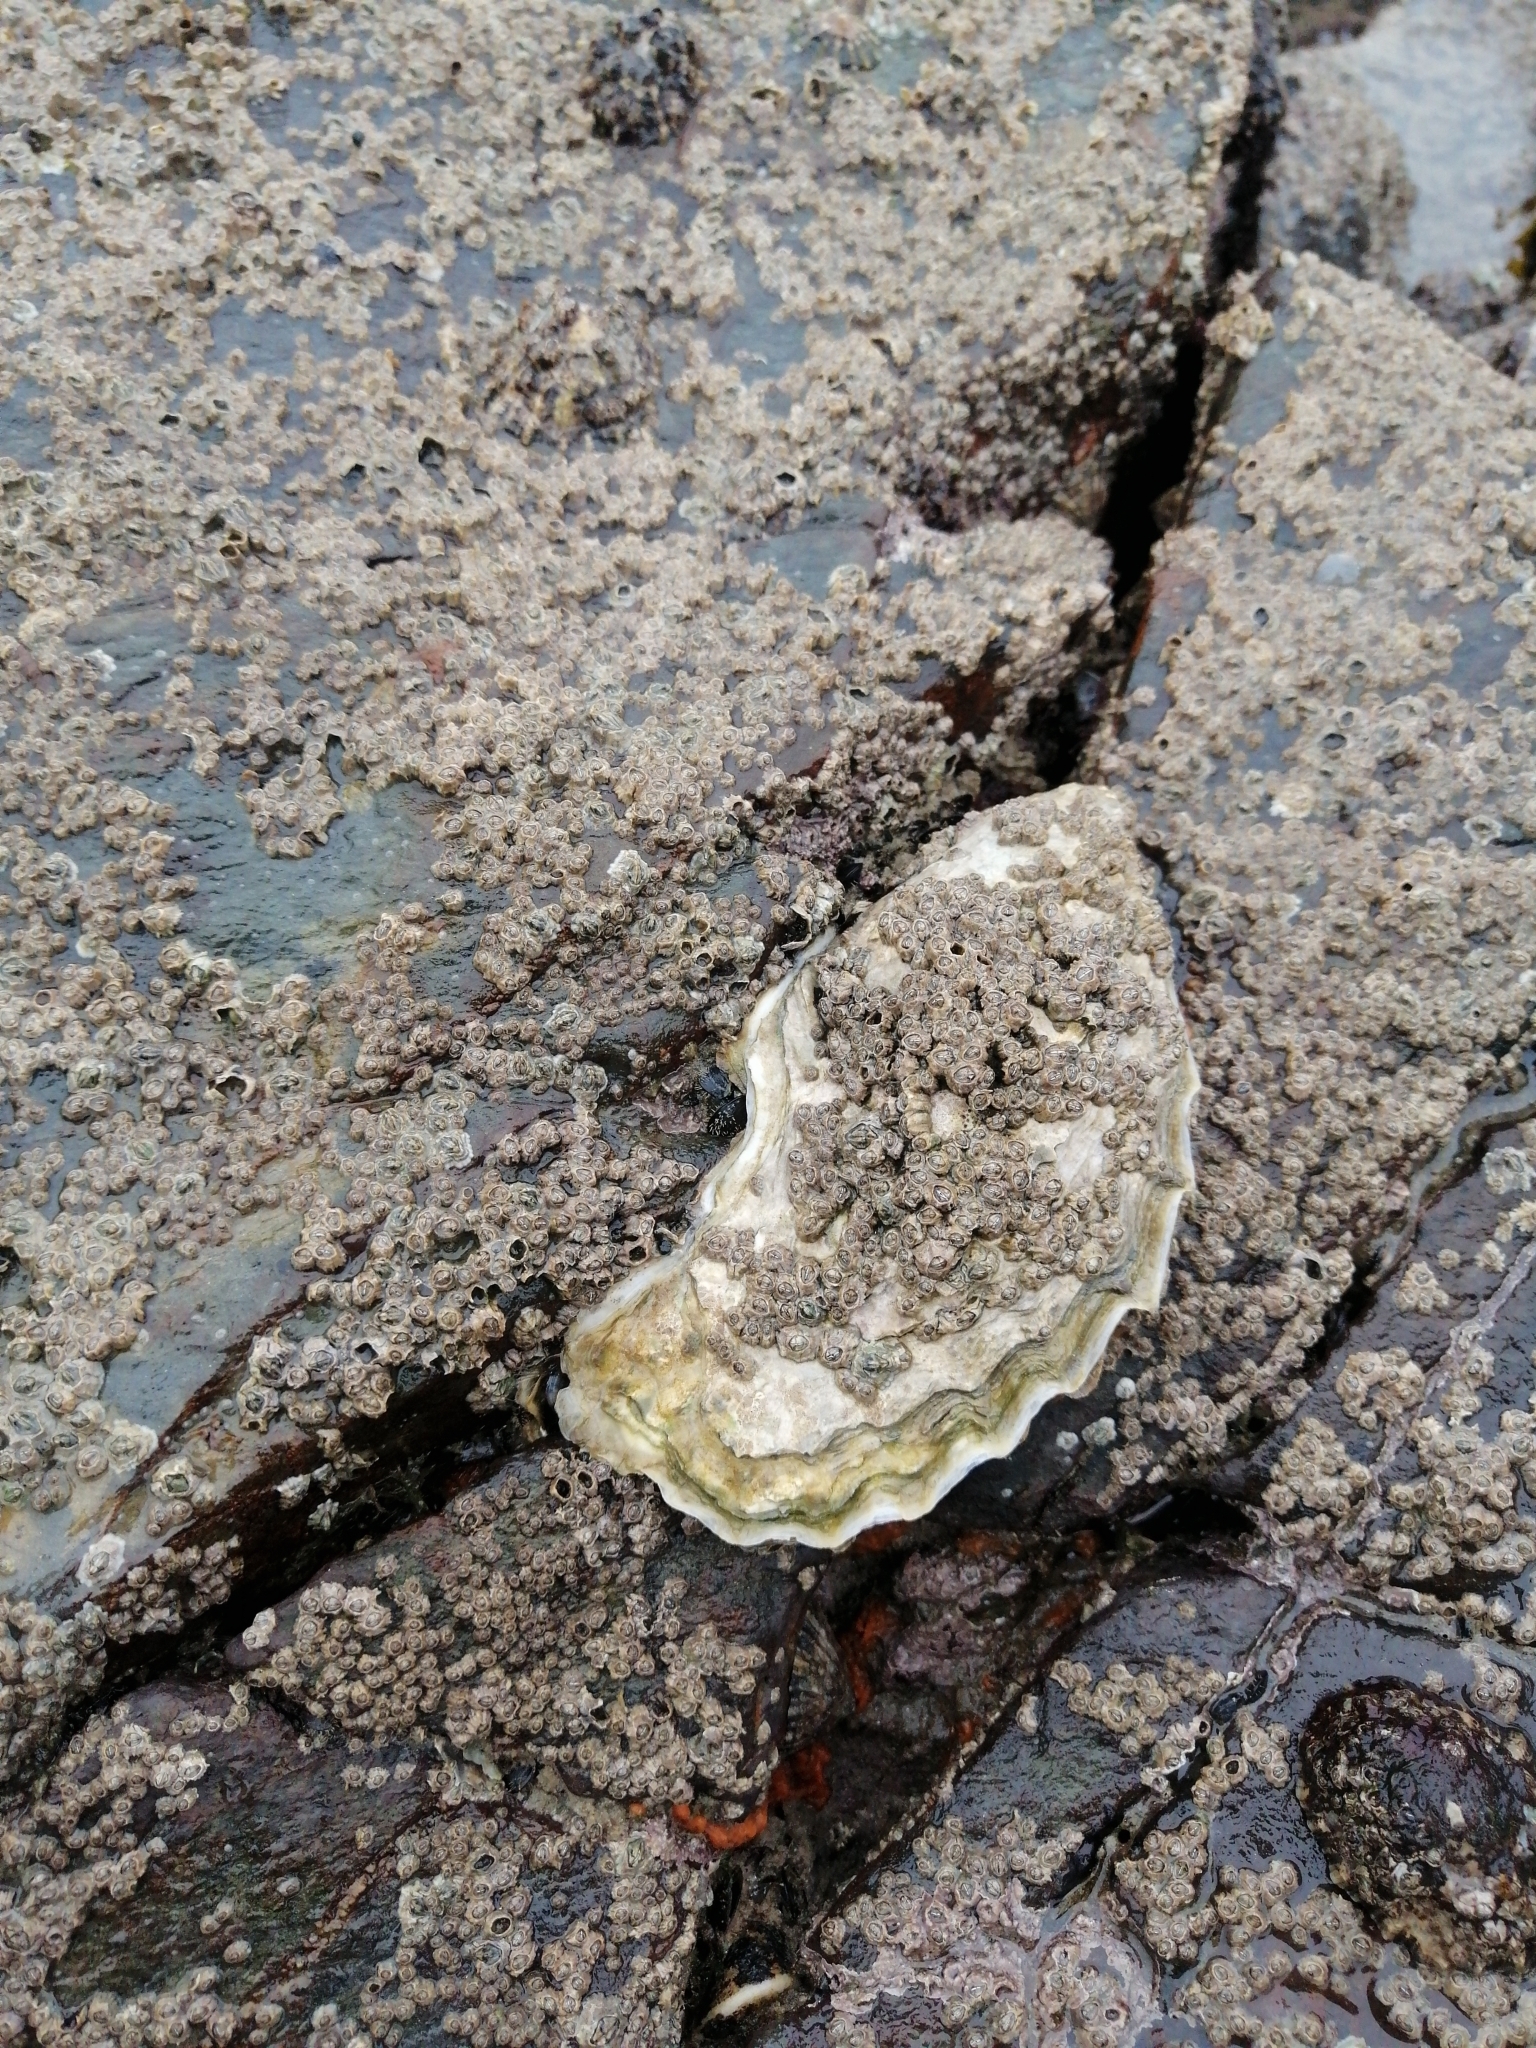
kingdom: Animalia
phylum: Mollusca
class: Bivalvia
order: Ostreida
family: Ostreidae
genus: Magallana
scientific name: Magallana gigas
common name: Pacific oyster
